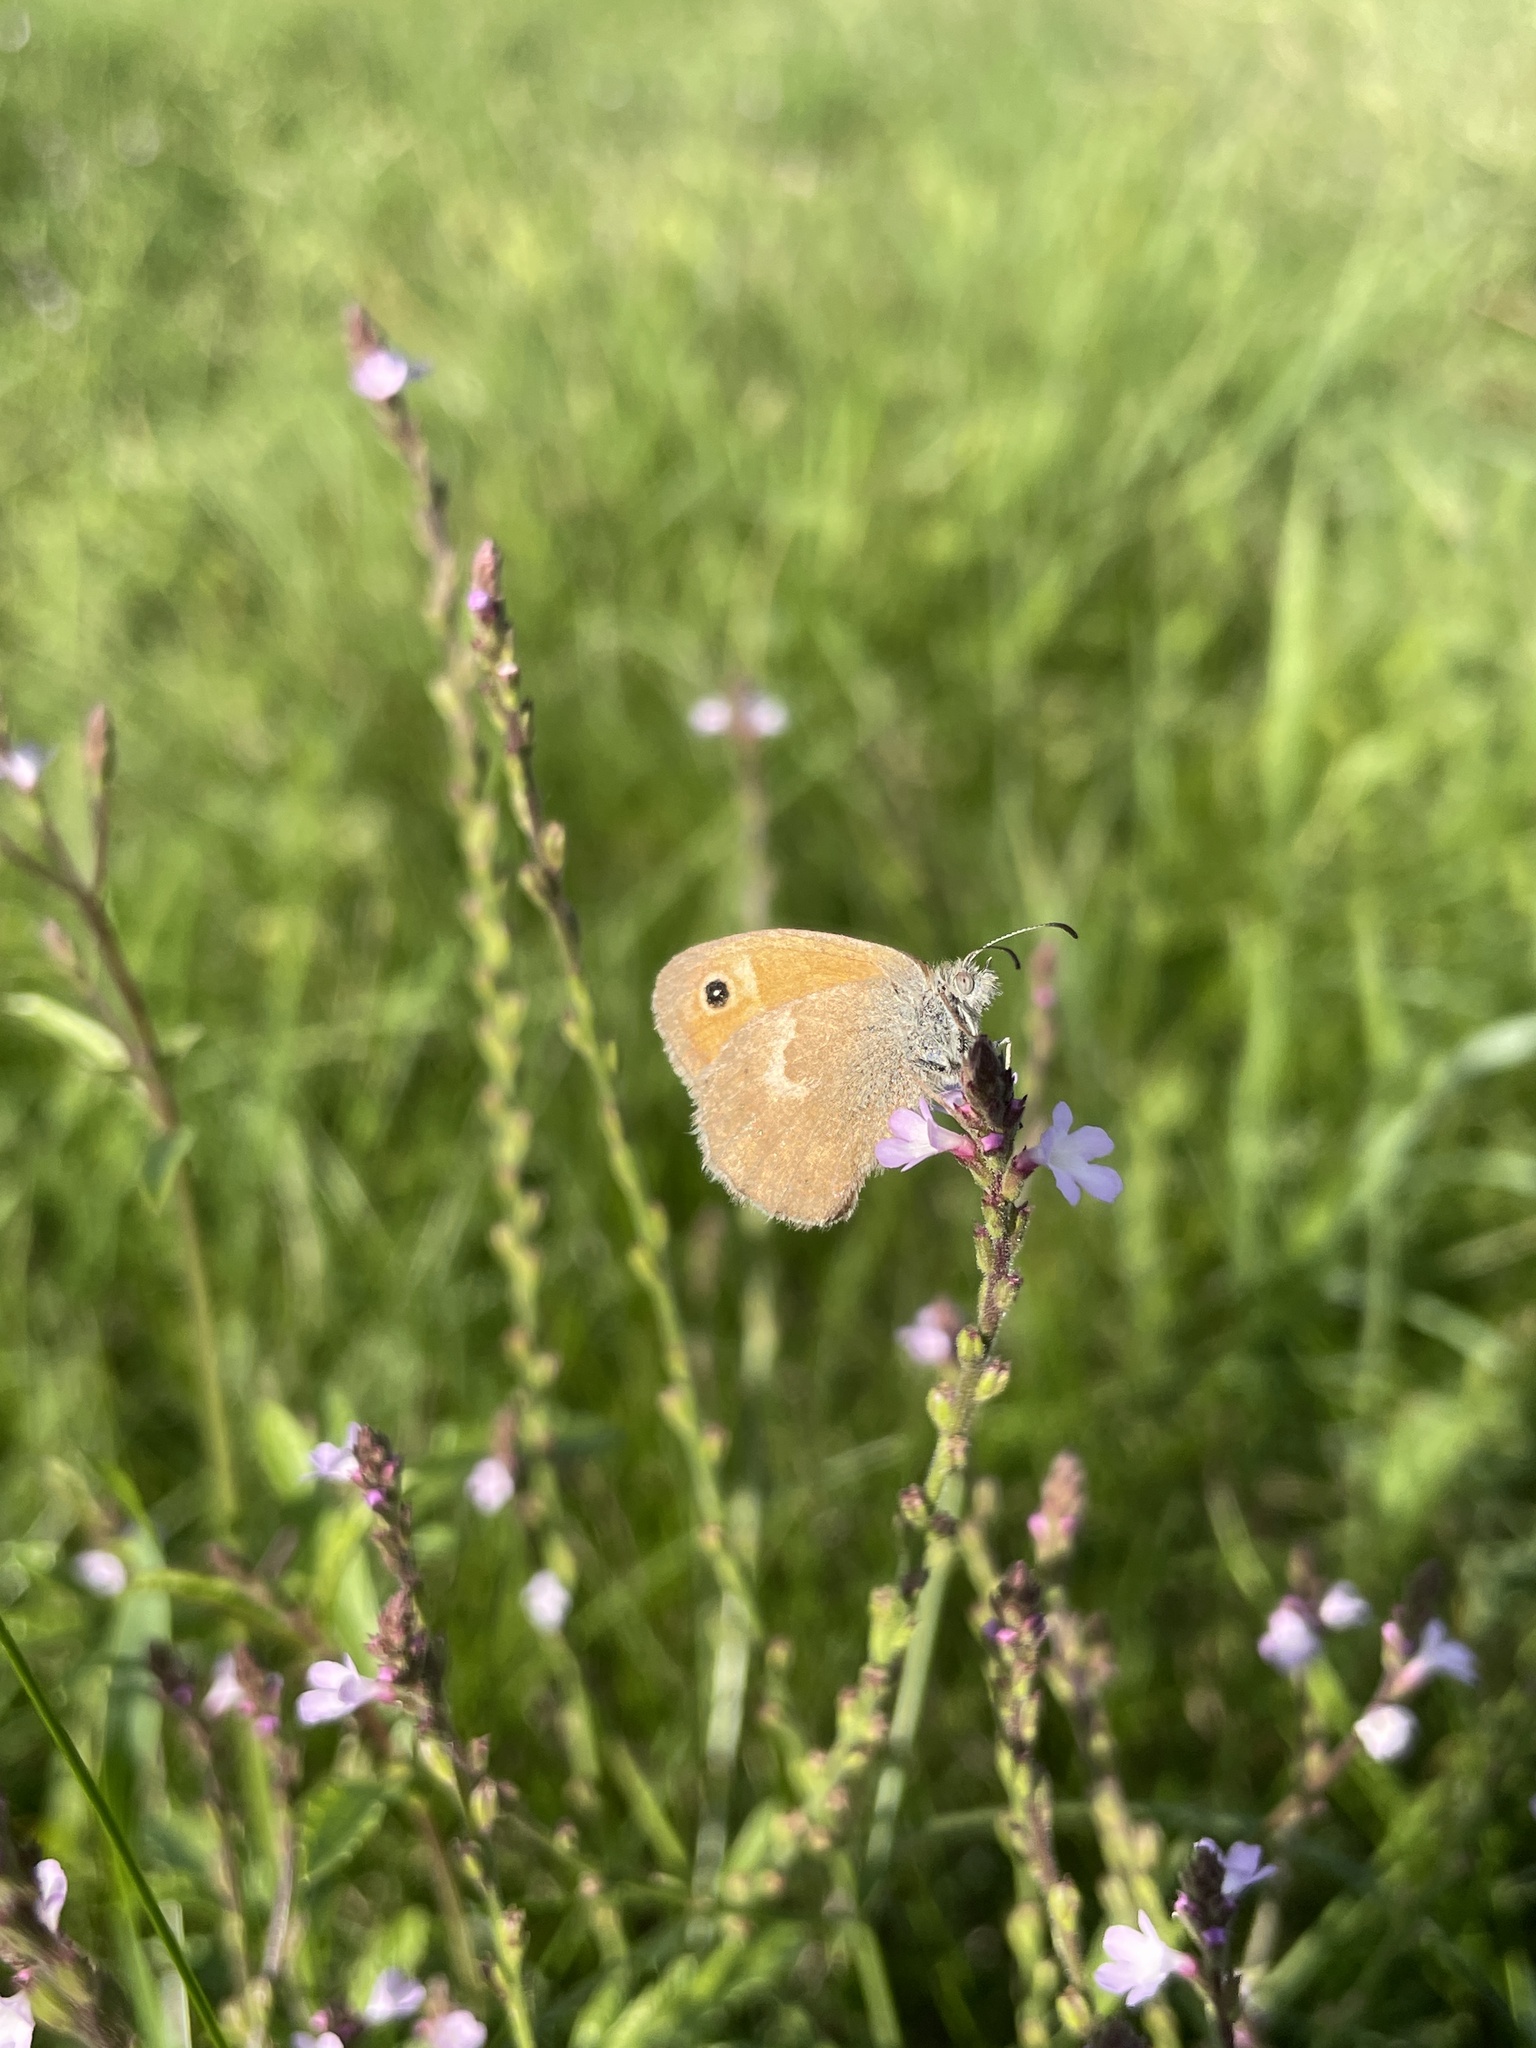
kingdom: Animalia
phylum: Arthropoda
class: Insecta
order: Lepidoptera
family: Nymphalidae
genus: Coenonympha
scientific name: Coenonympha pamphilus
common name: Small heath
